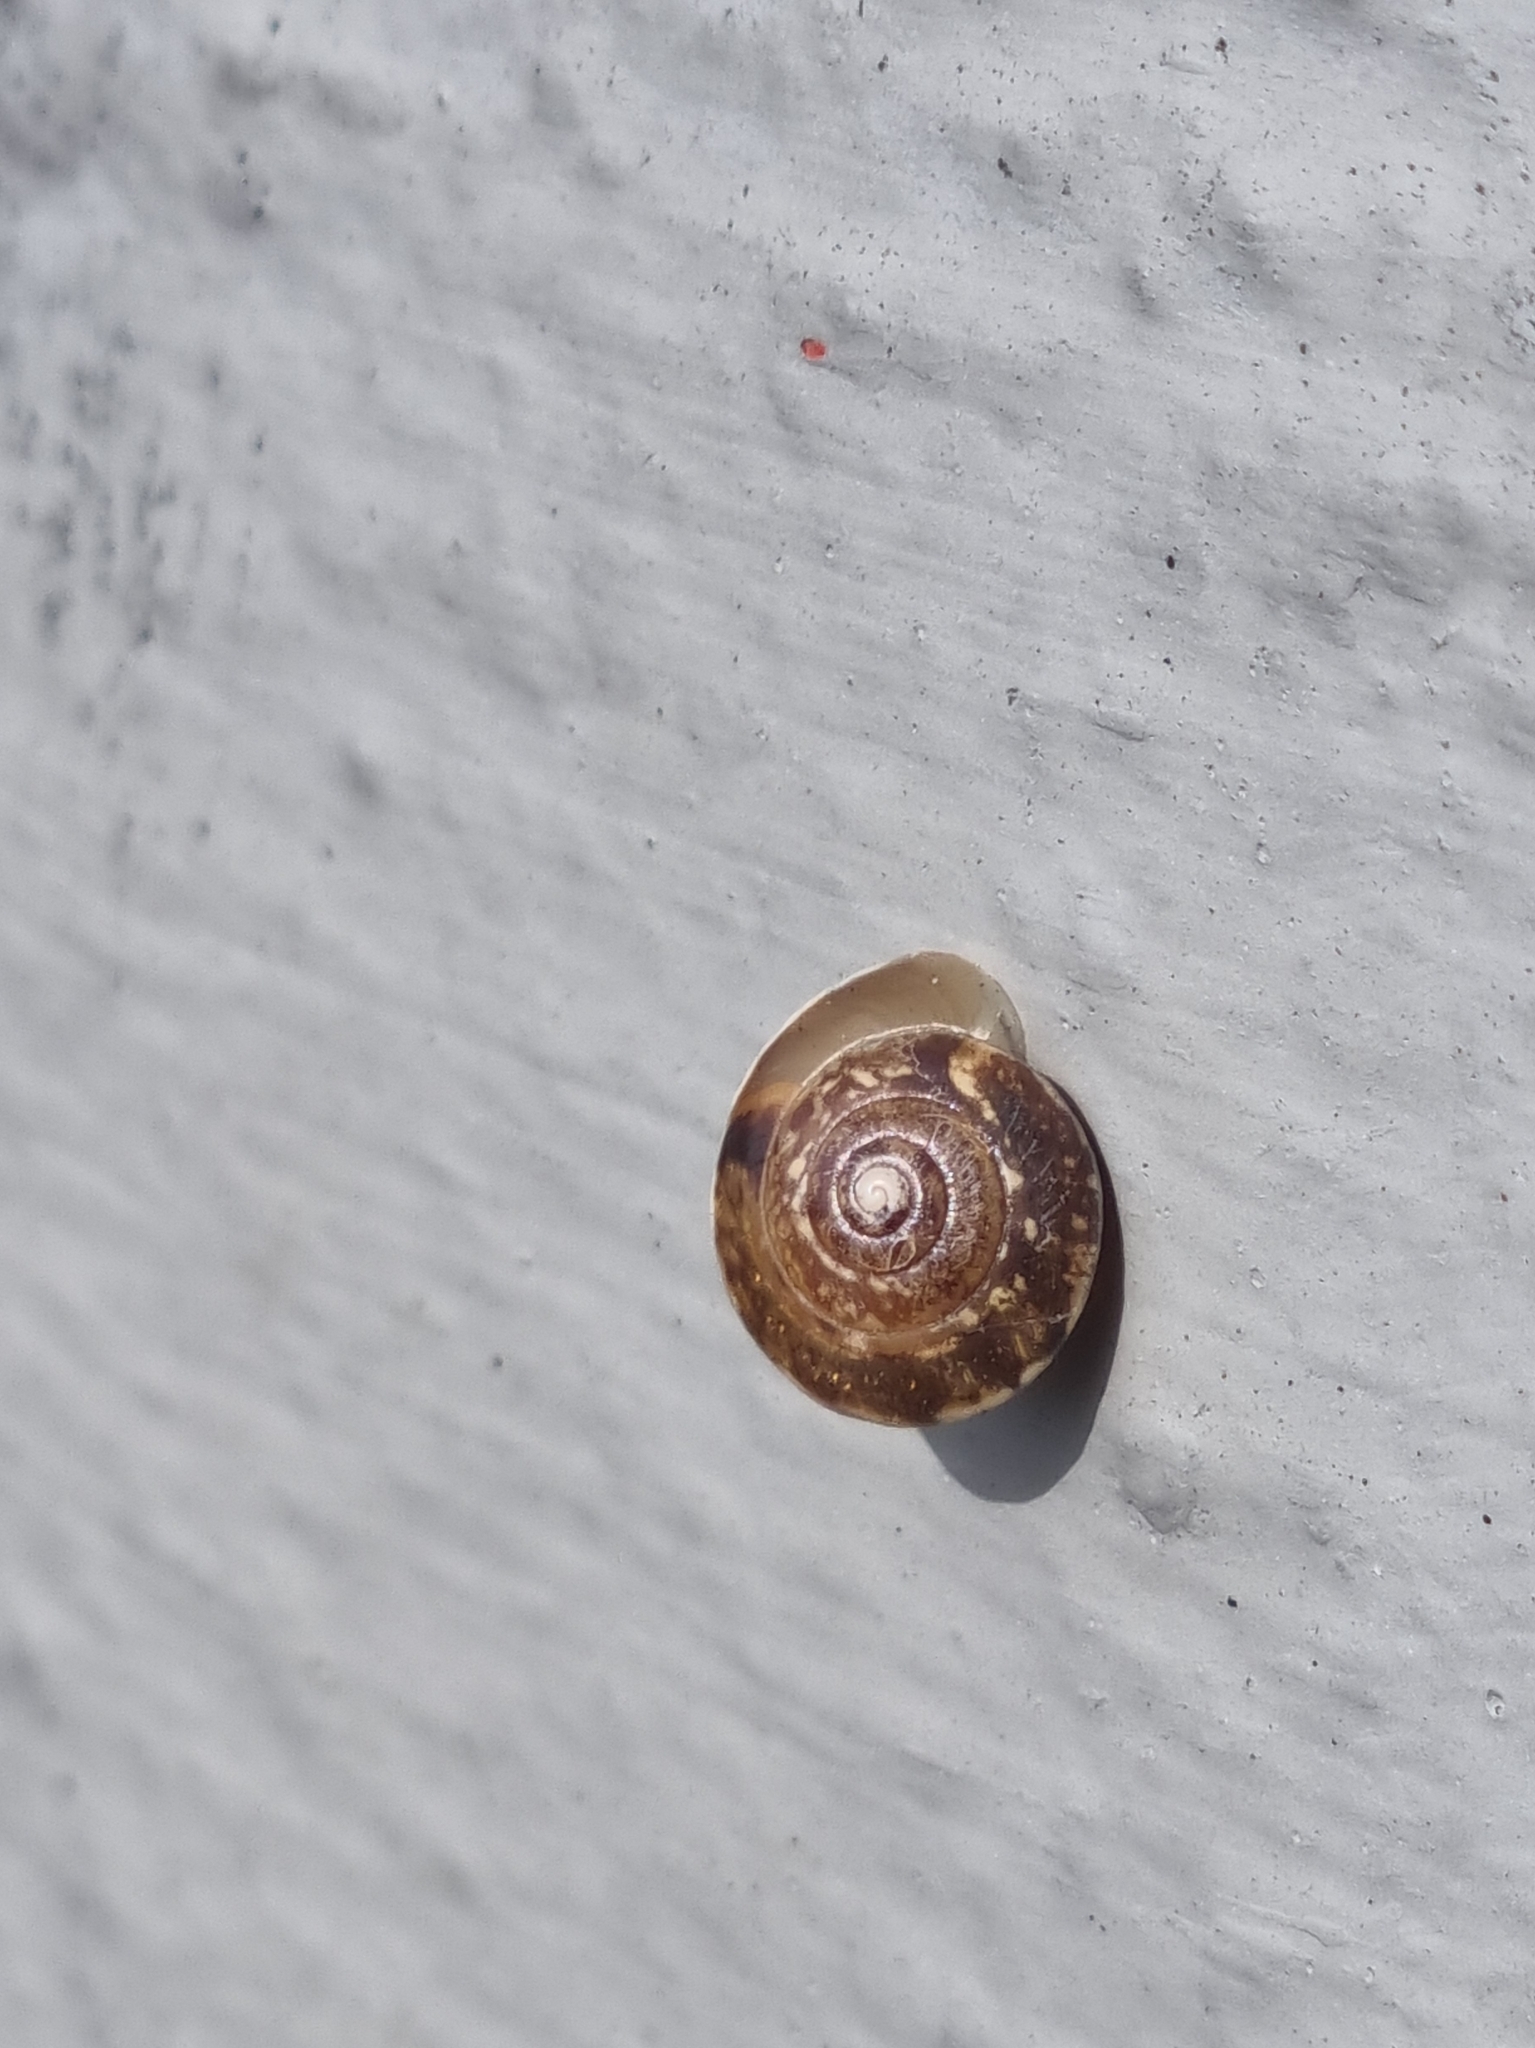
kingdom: Animalia
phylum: Mollusca
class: Gastropoda
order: Stylommatophora
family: Hygromiidae
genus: Hygromia
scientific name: Hygromia cinctella
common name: Girdled snail
